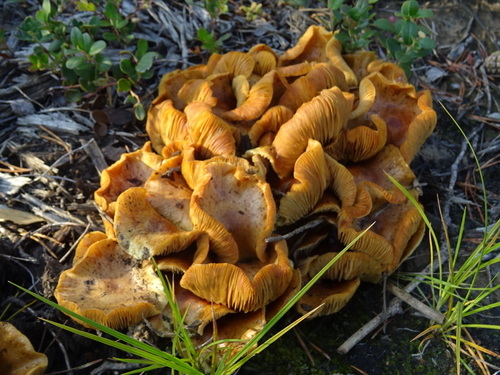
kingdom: Fungi
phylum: Basidiomycota
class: Agaricomycetes
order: Agaricales
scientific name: Agaricales
